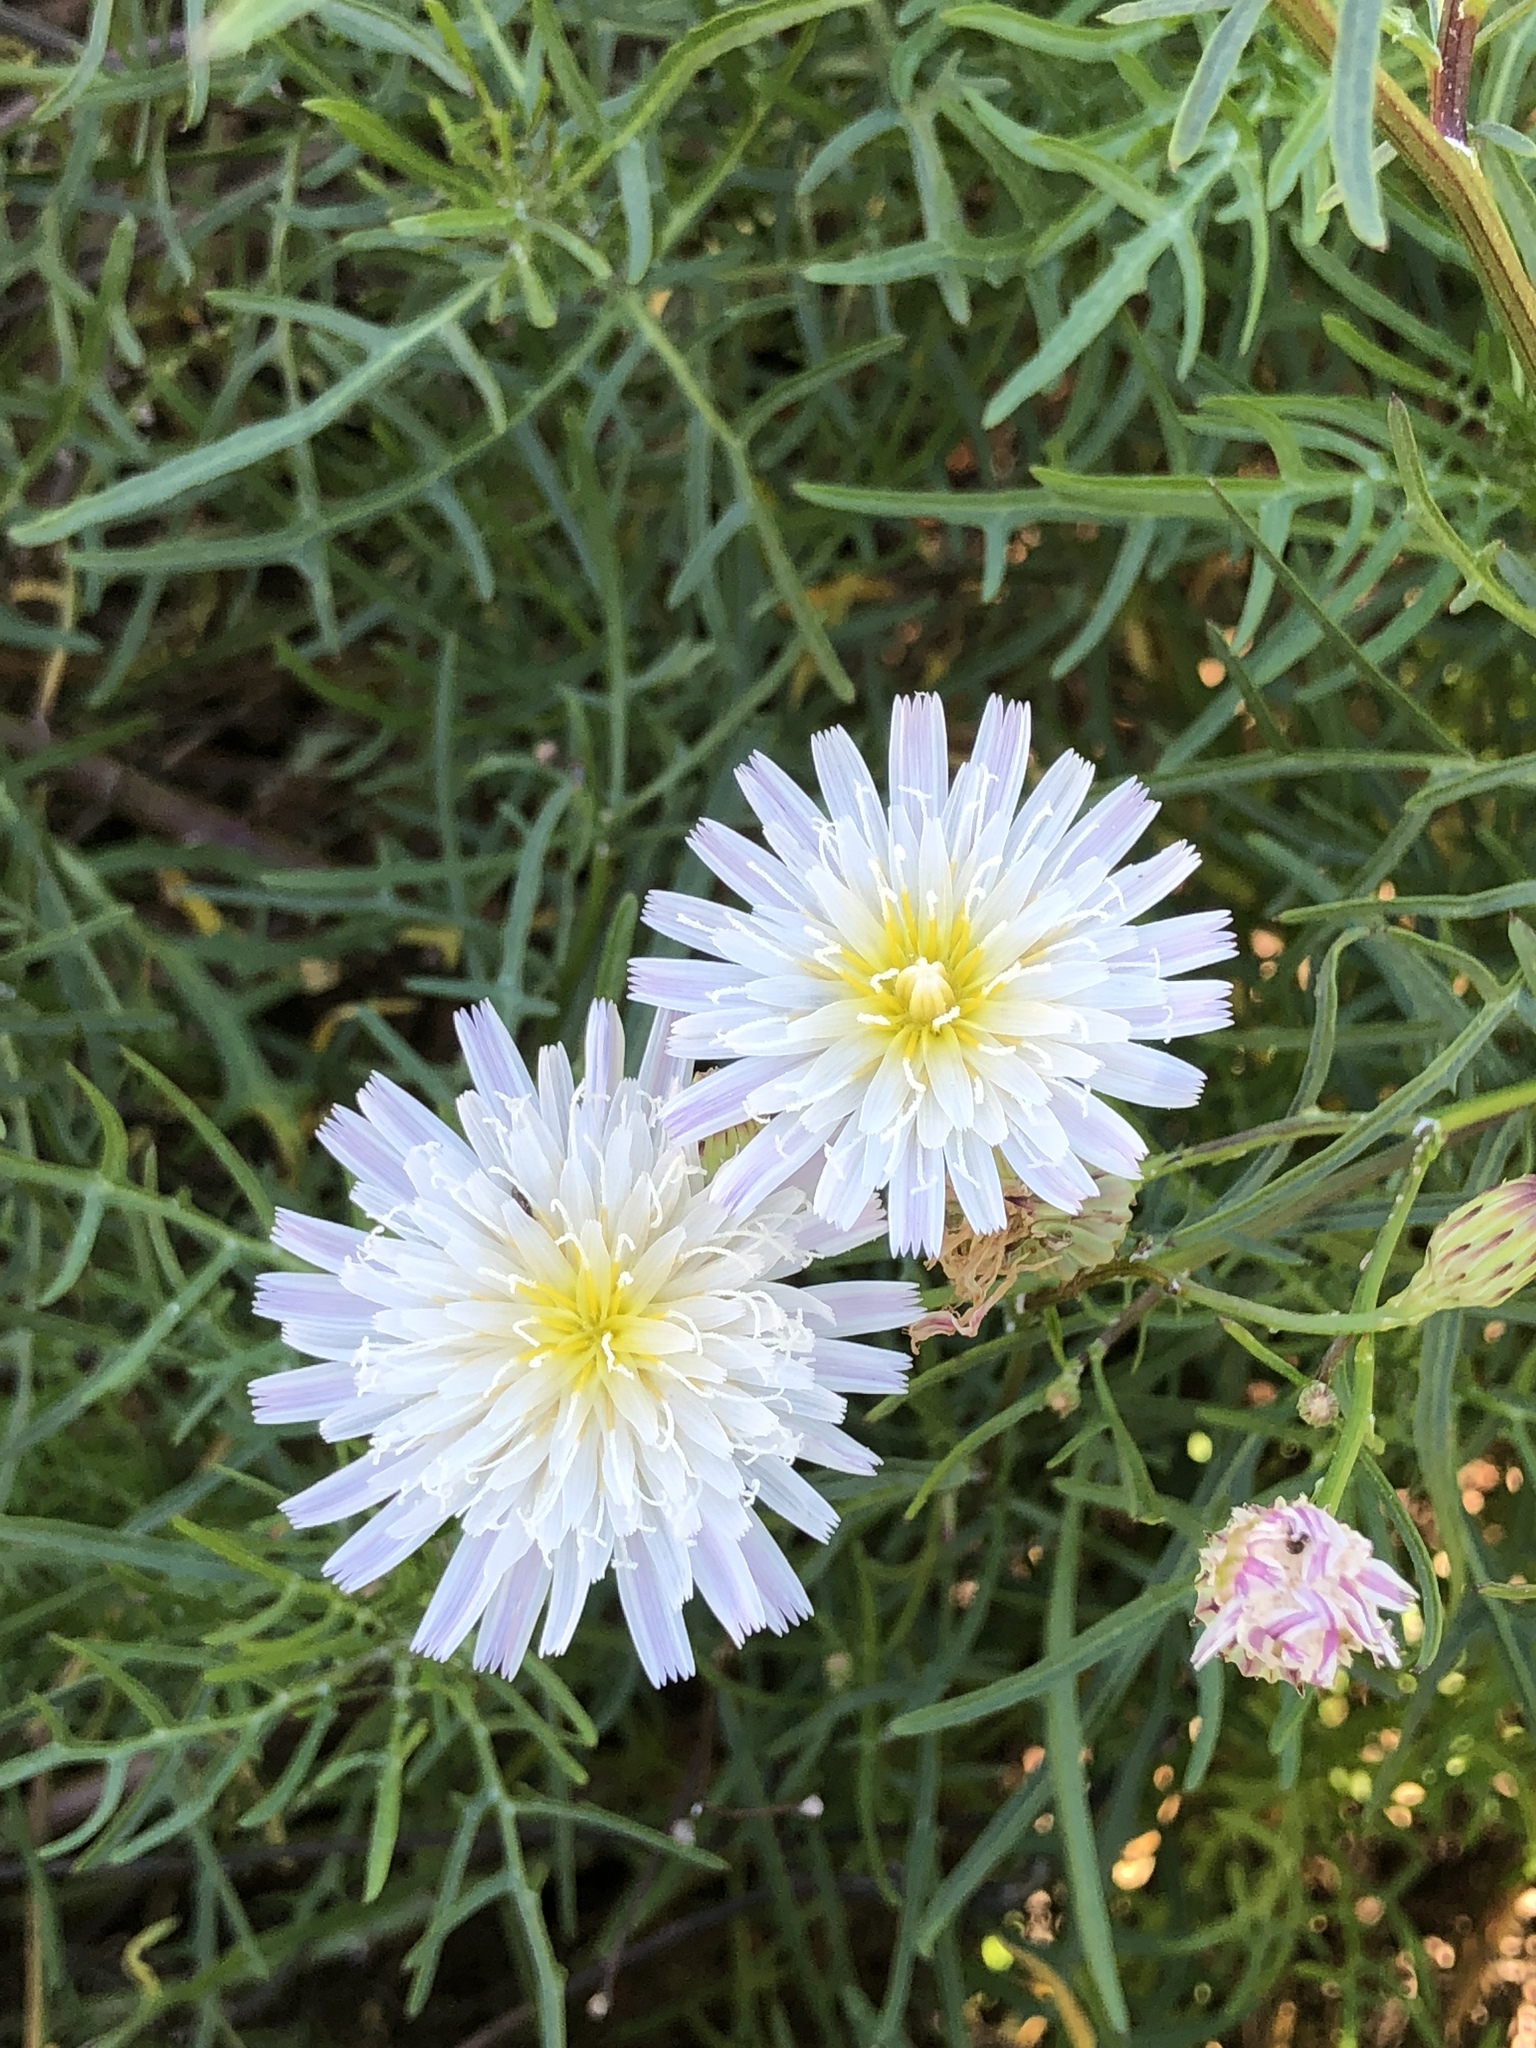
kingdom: Plantae
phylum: Tracheophyta
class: Magnoliopsida
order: Asterales
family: Asteraceae
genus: Malacothrix
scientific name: Malacothrix saxatilis
